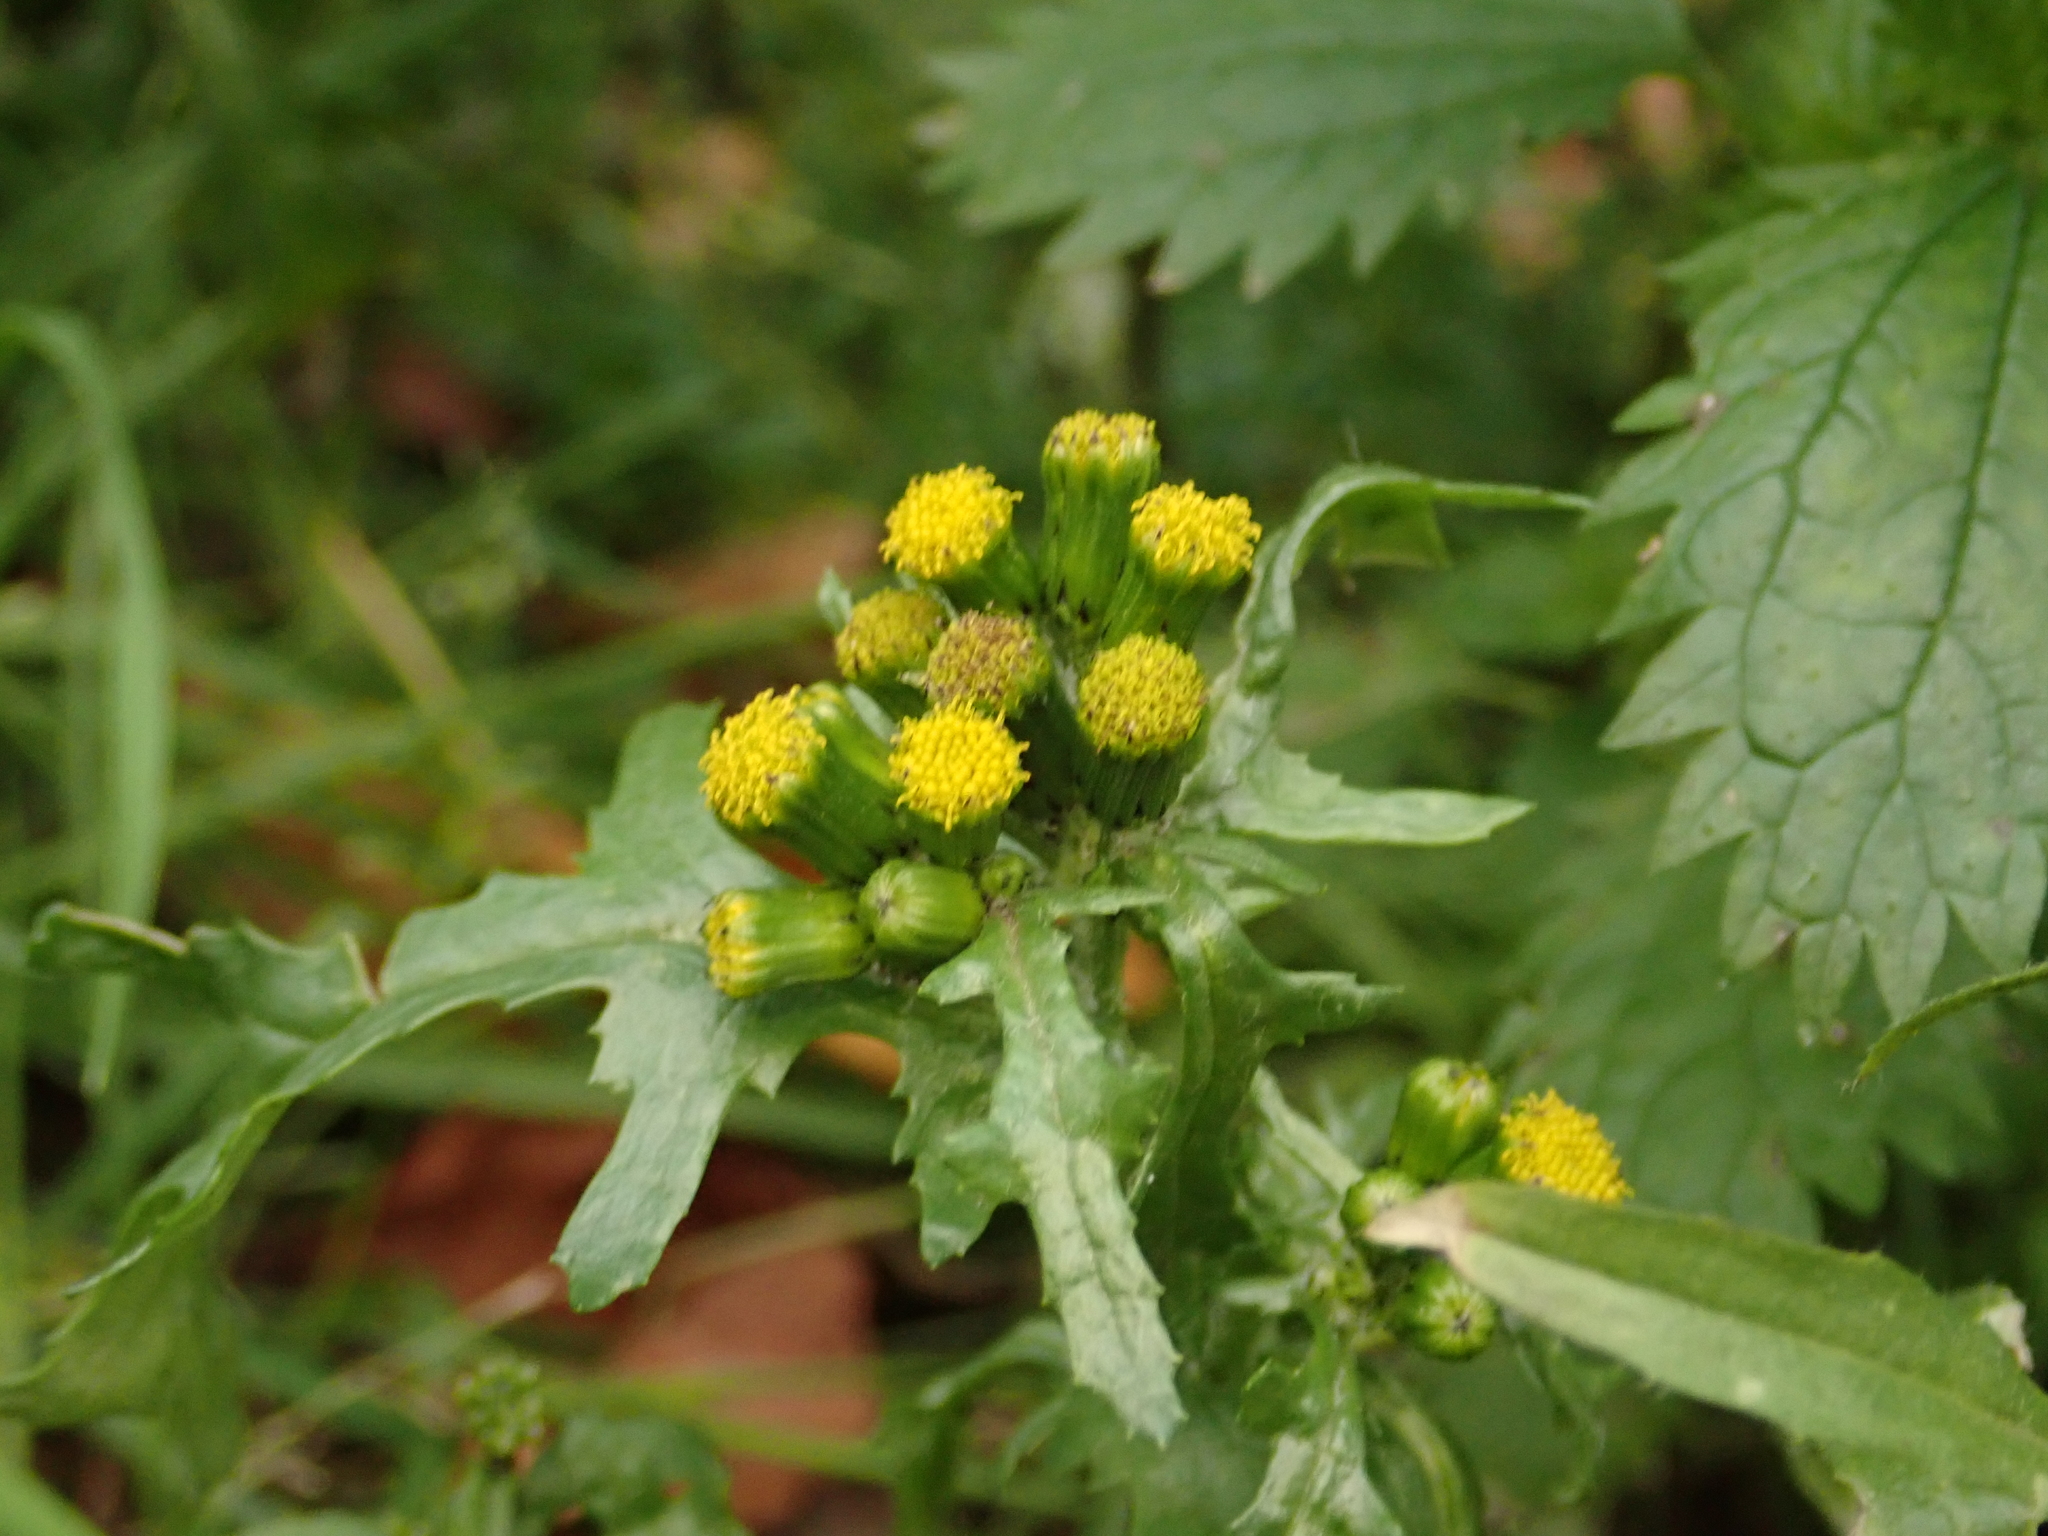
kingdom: Plantae
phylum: Tracheophyta
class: Magnoliopsida
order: Asterales
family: Asteraceae
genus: Senecio
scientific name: Senecio vulgaris
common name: Old-man-in-the-spring
